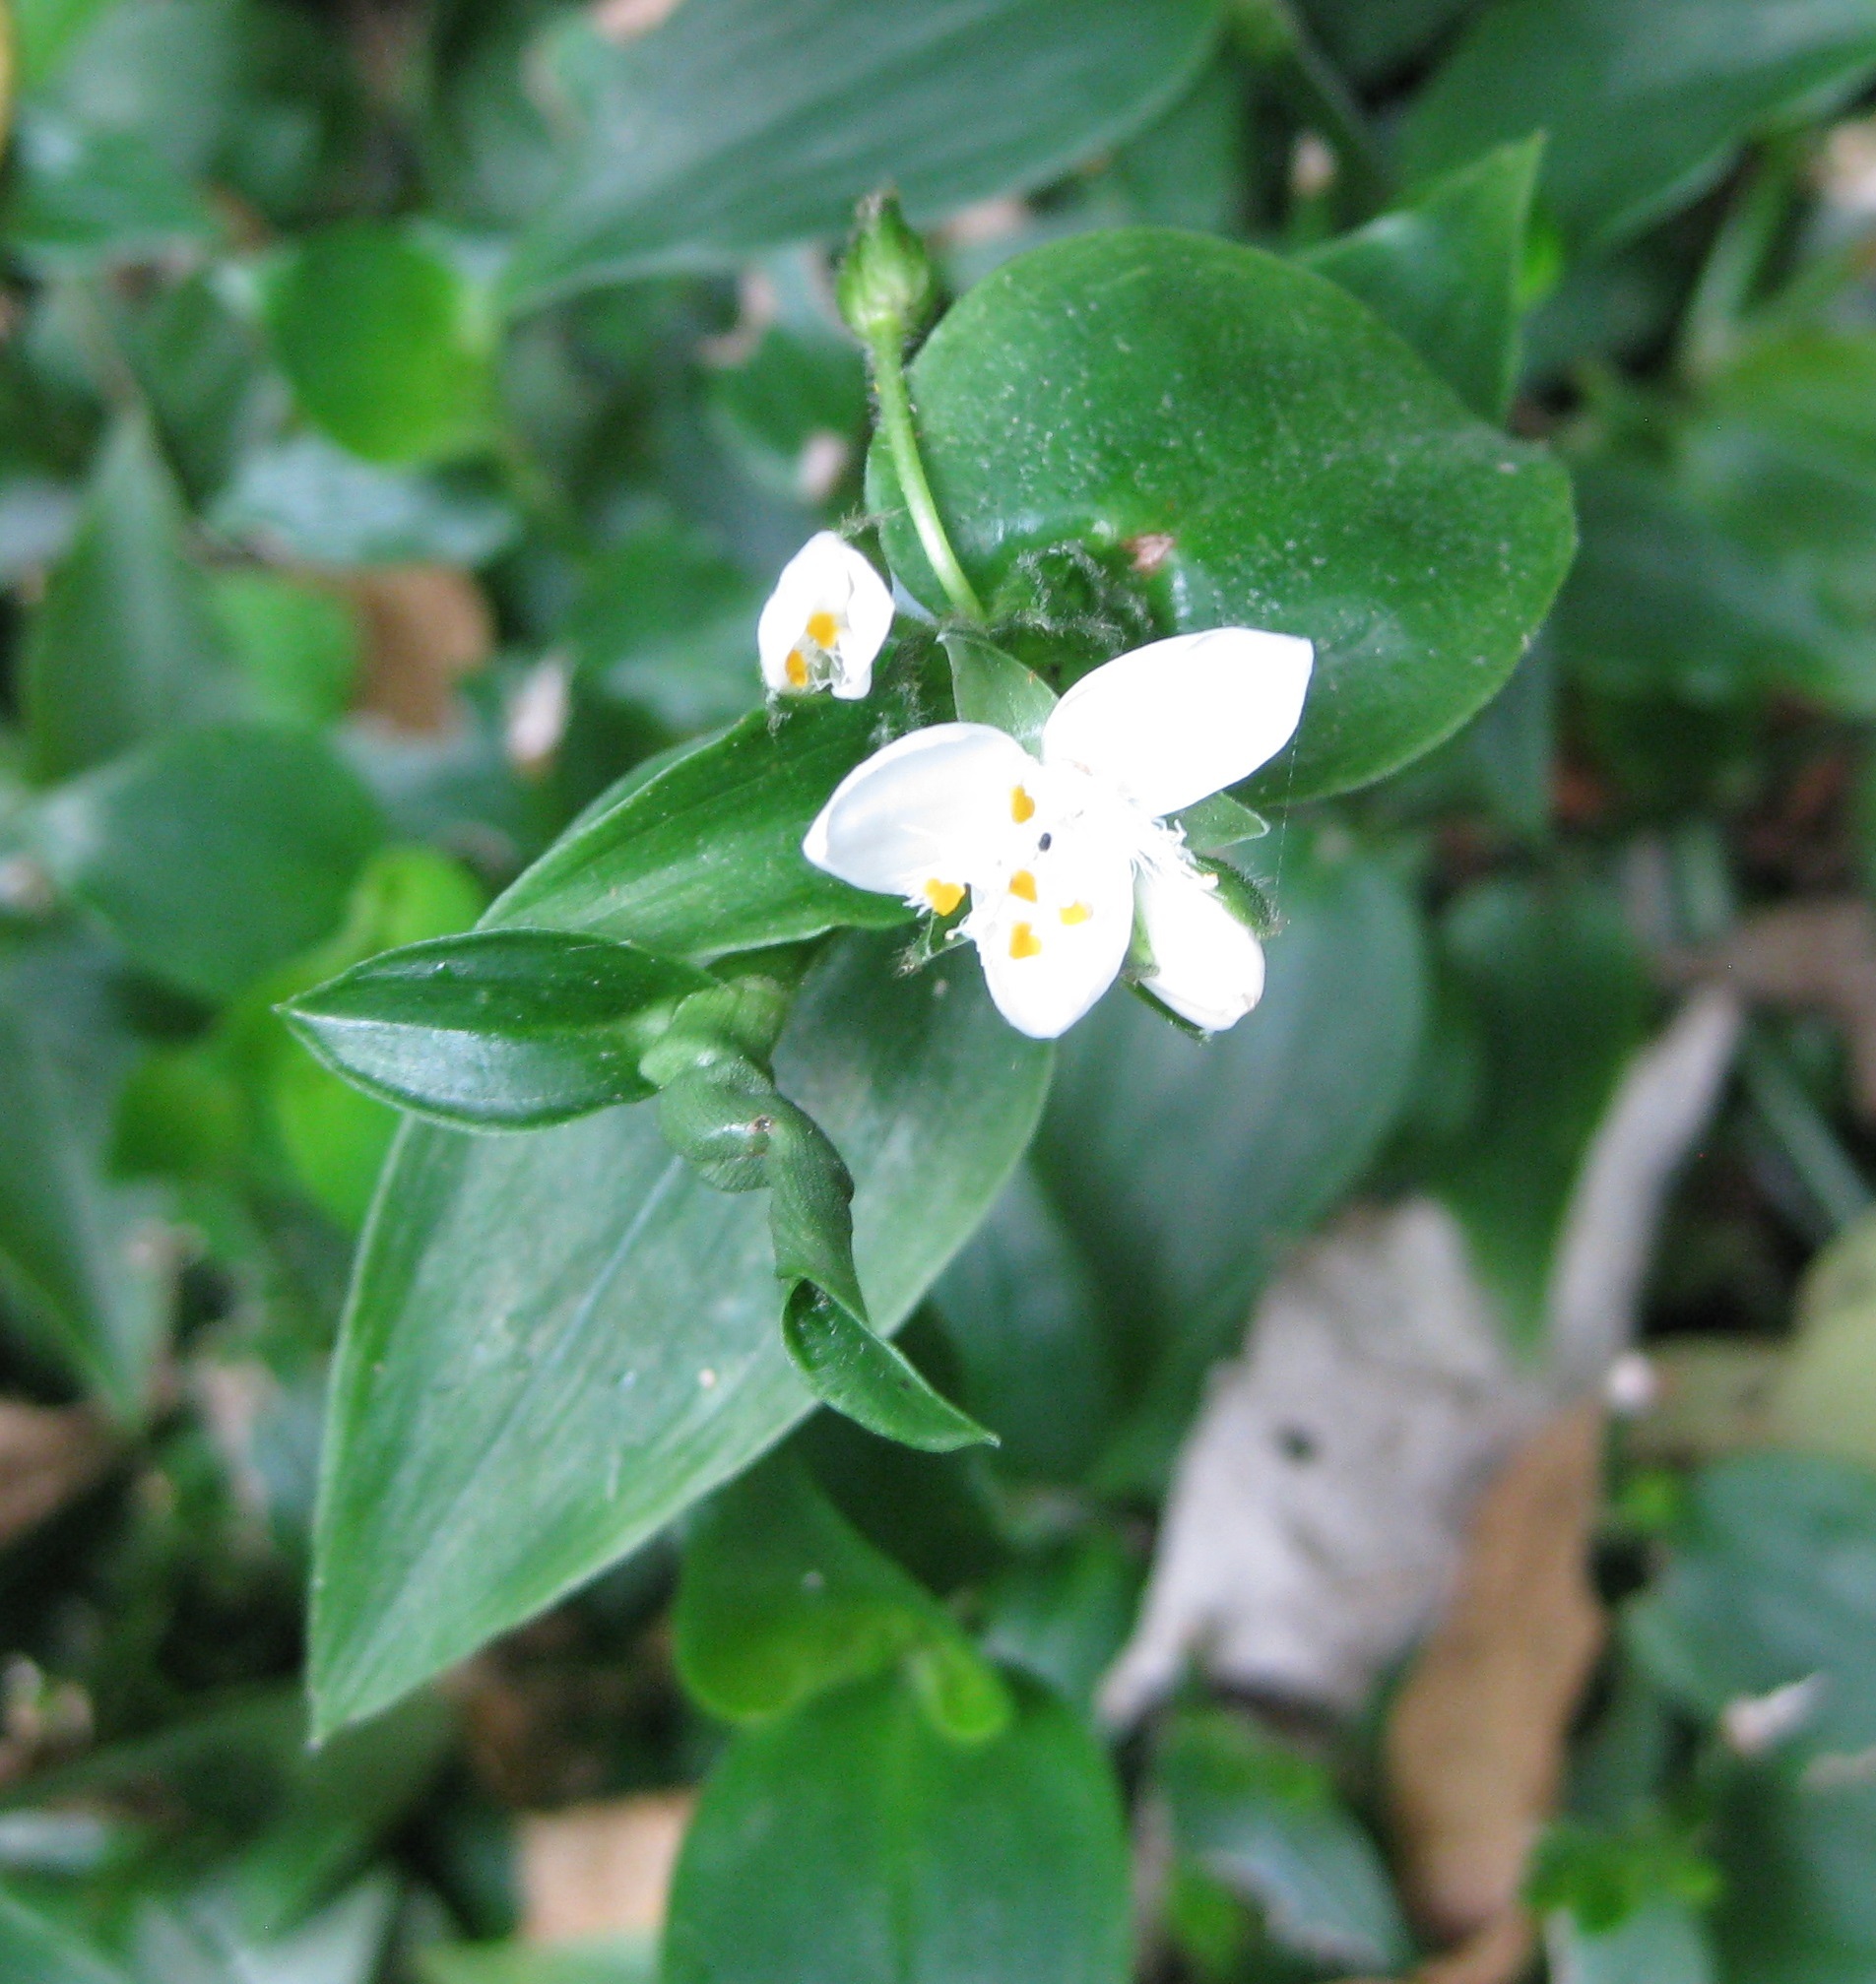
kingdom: Plantae
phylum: Tracheophyta
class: Liliopsida
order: Commelinales
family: Commelinaceae
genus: Tradescantia
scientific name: Tradescantia fluminensis
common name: Wandering-jew
